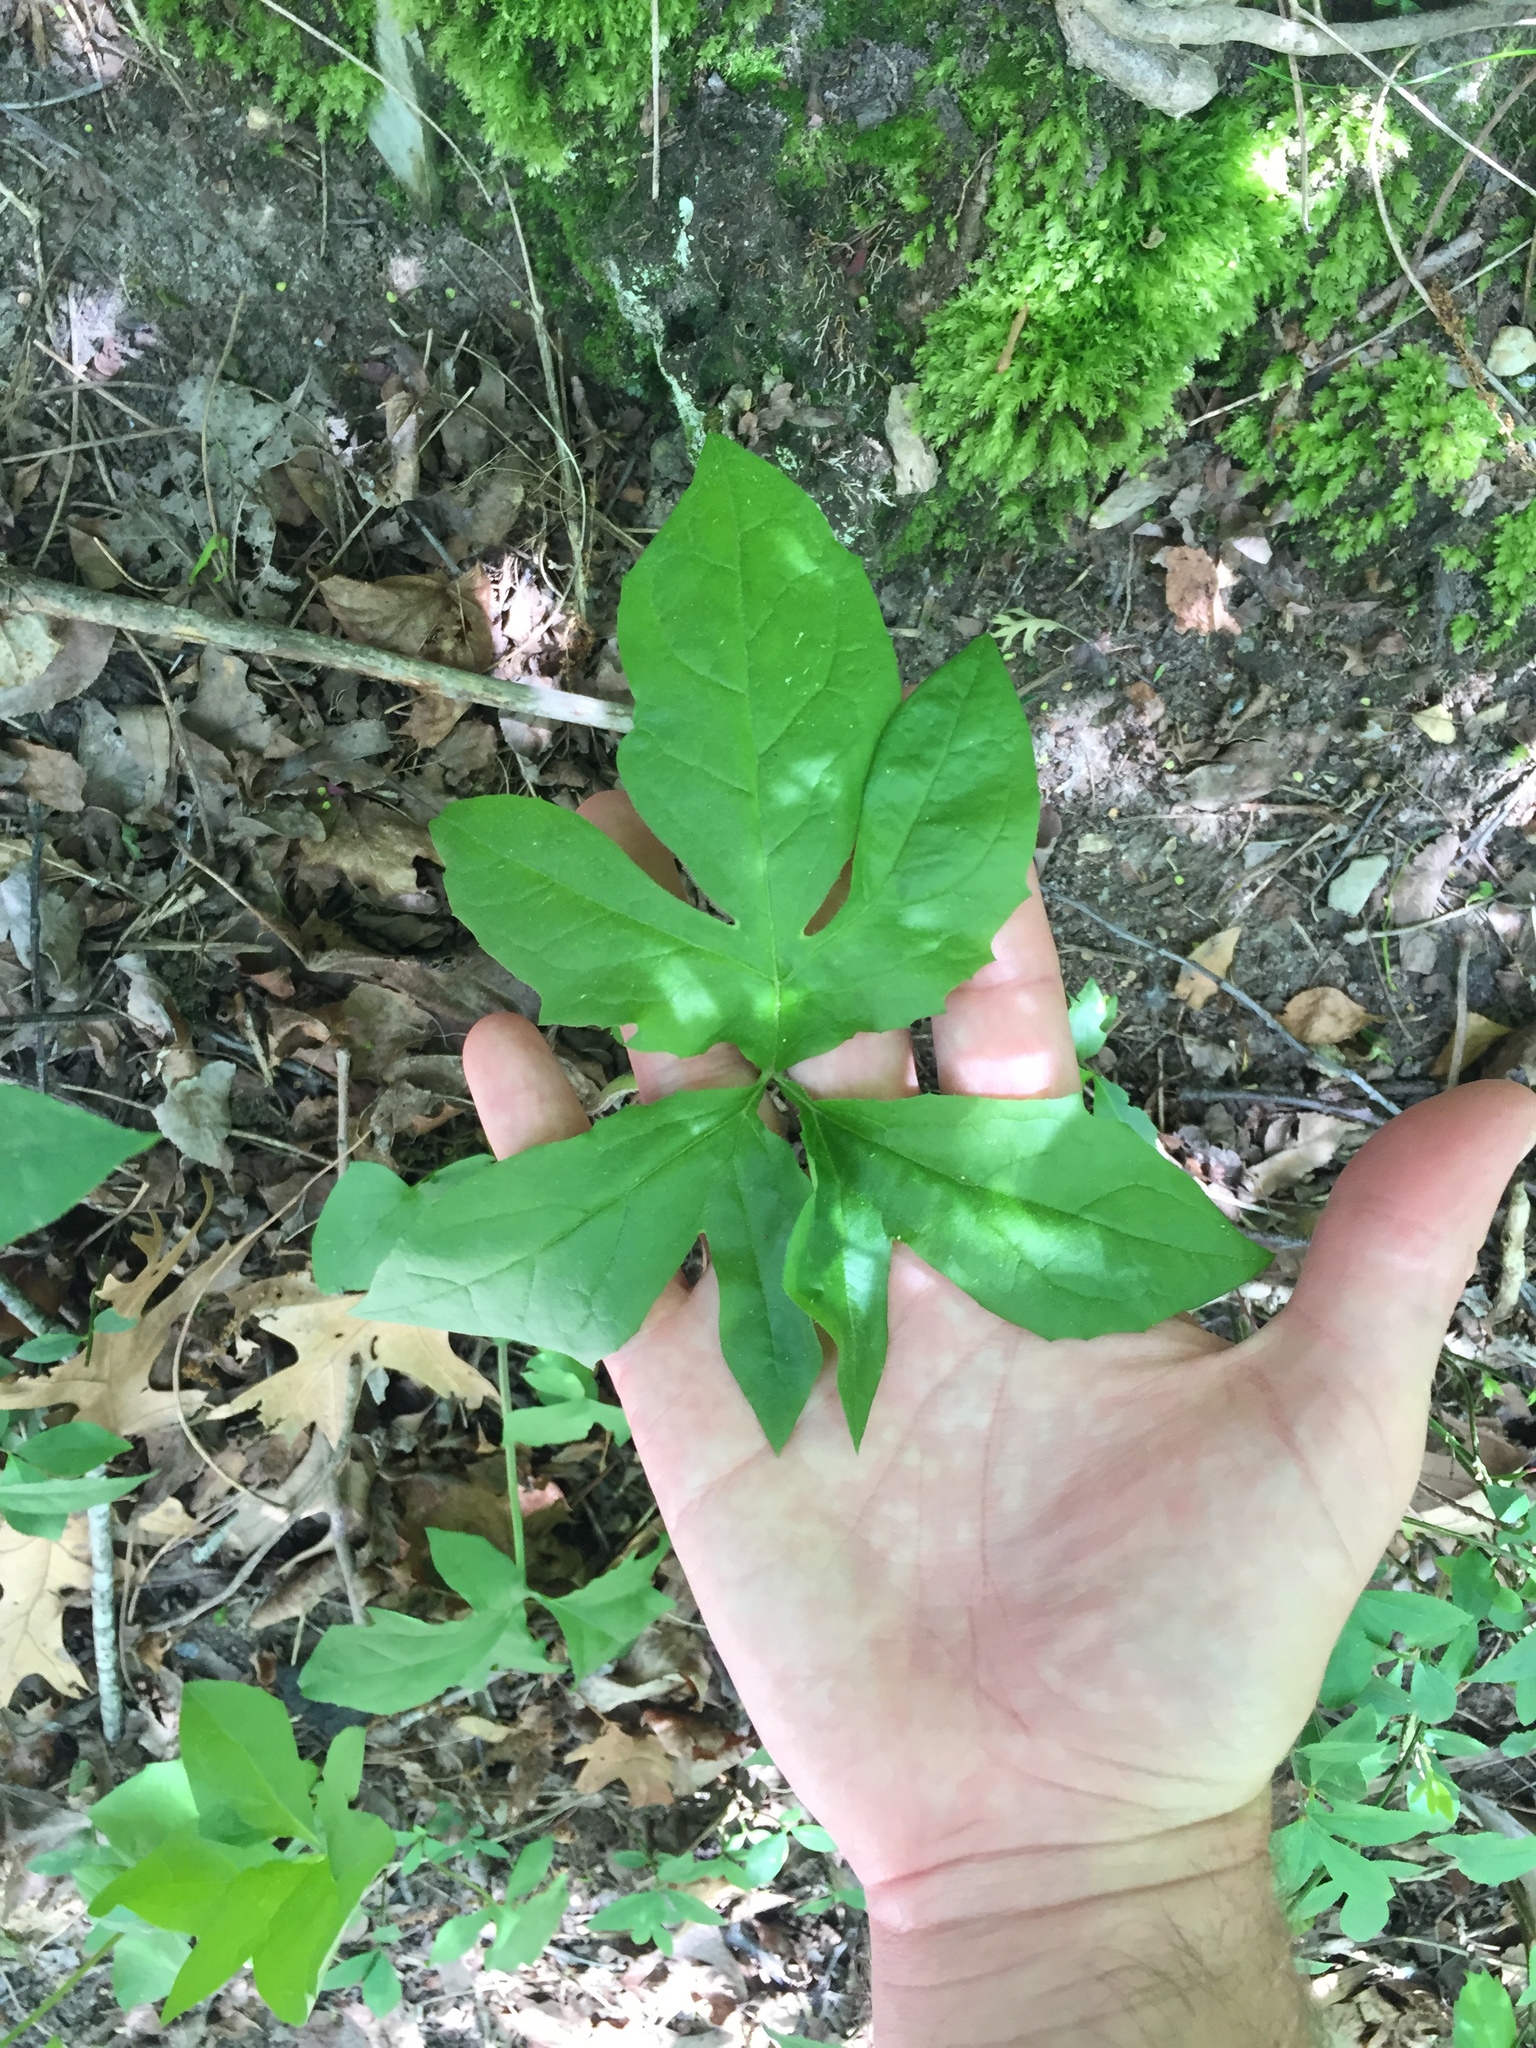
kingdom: Plantae
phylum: Tracheophyta
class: Magnoliopsida
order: Asterales
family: Asteraceae
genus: Nabalus
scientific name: Nabalus trifoliolatus
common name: Gall-of-the-earth
